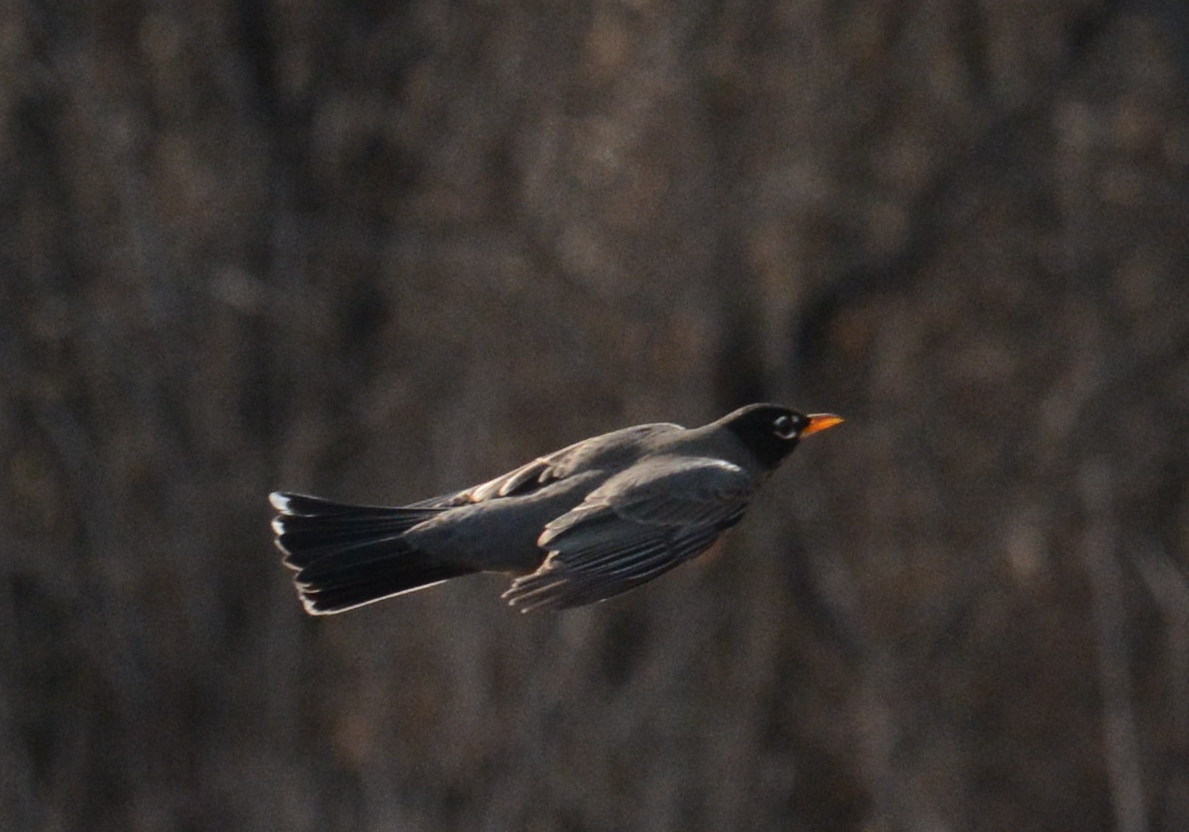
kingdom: Animalia
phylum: Chordata
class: Aves
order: Passeriformes
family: Turdidae
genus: Turdus
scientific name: Turdus migratorius
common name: American robin
